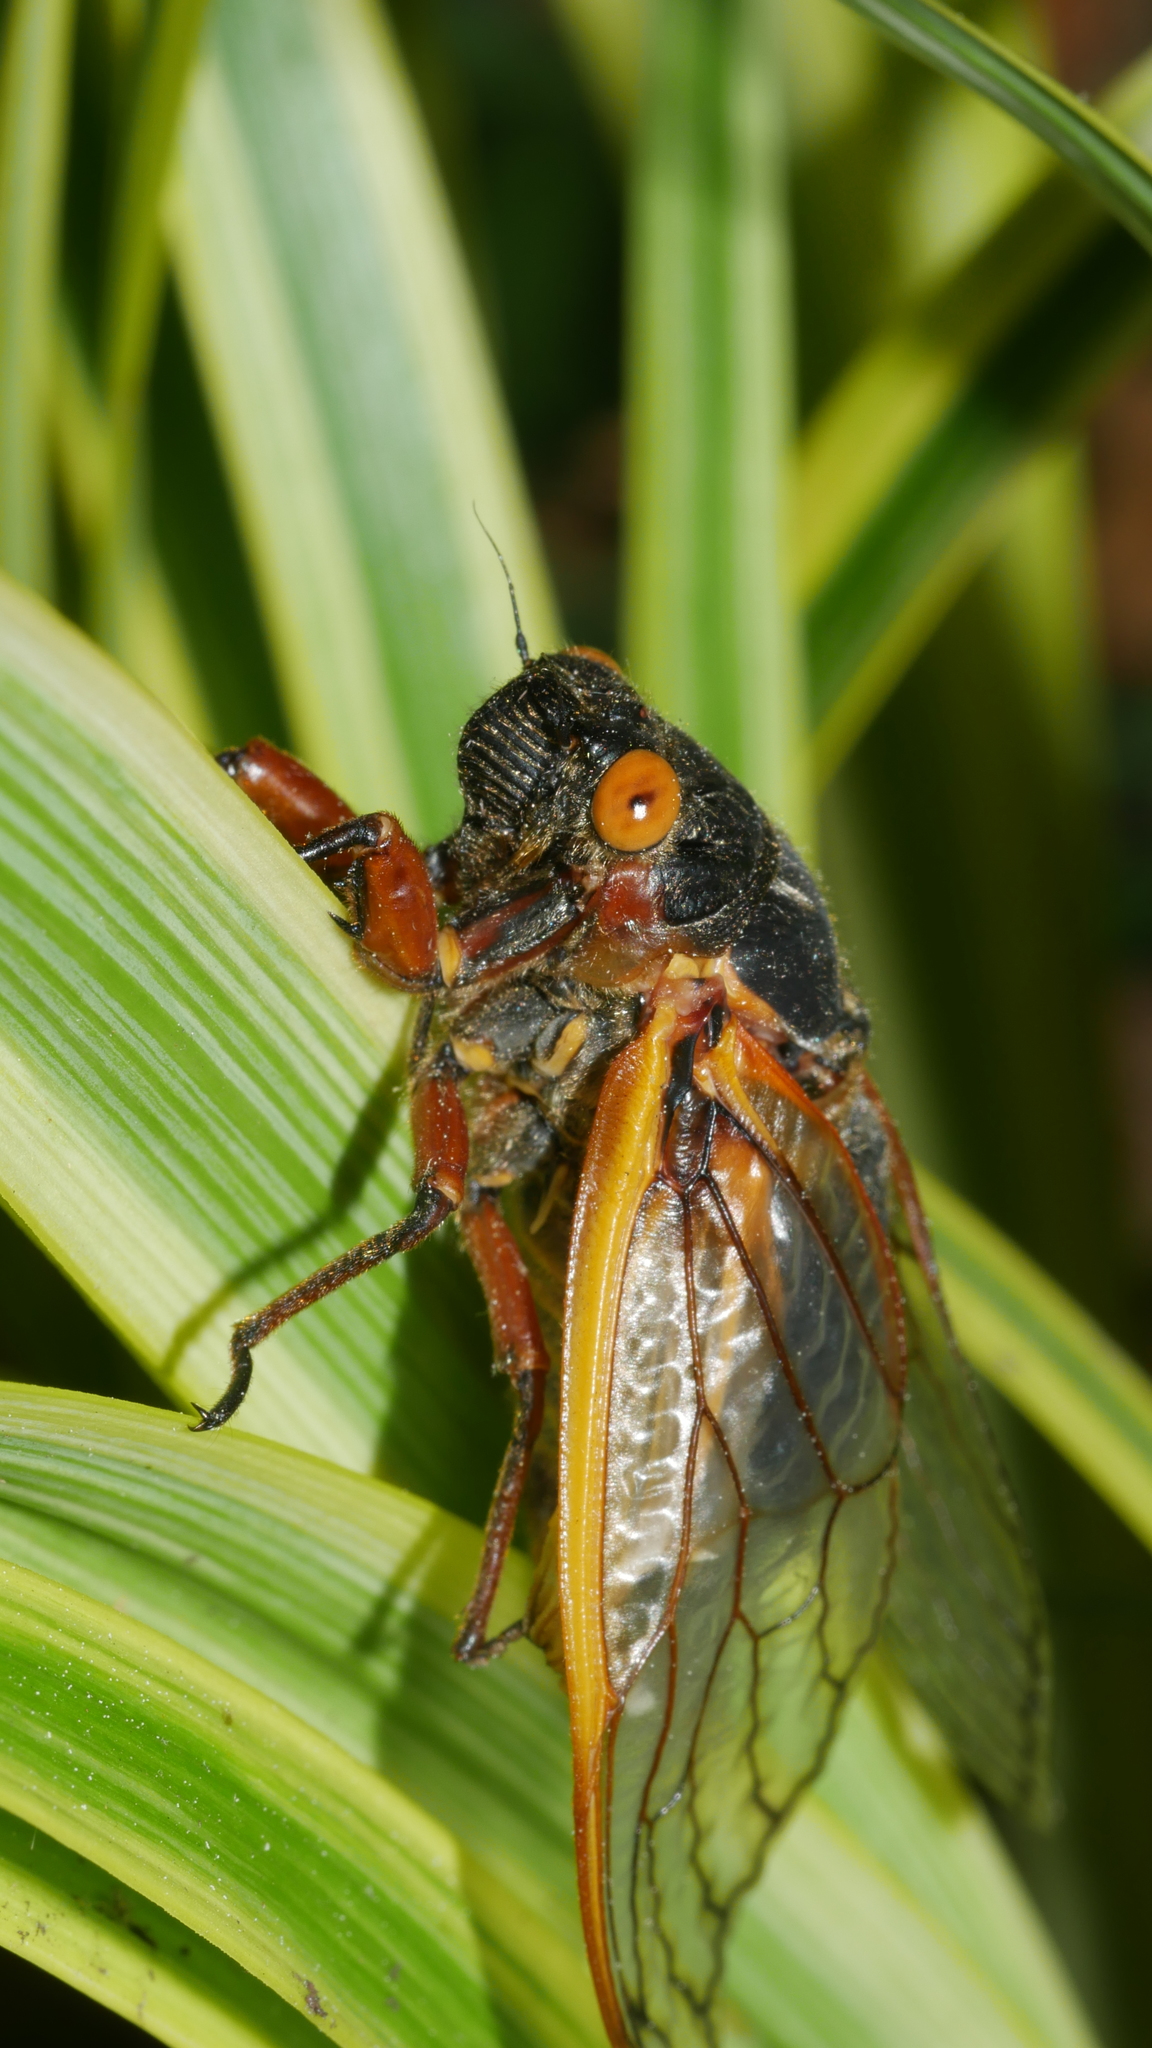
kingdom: Animalia
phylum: Arthropoda
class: Insecta
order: Hemiptera
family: Cicadidae
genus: Magicicada
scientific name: Magicicada septendecim
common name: Periodical cicada
